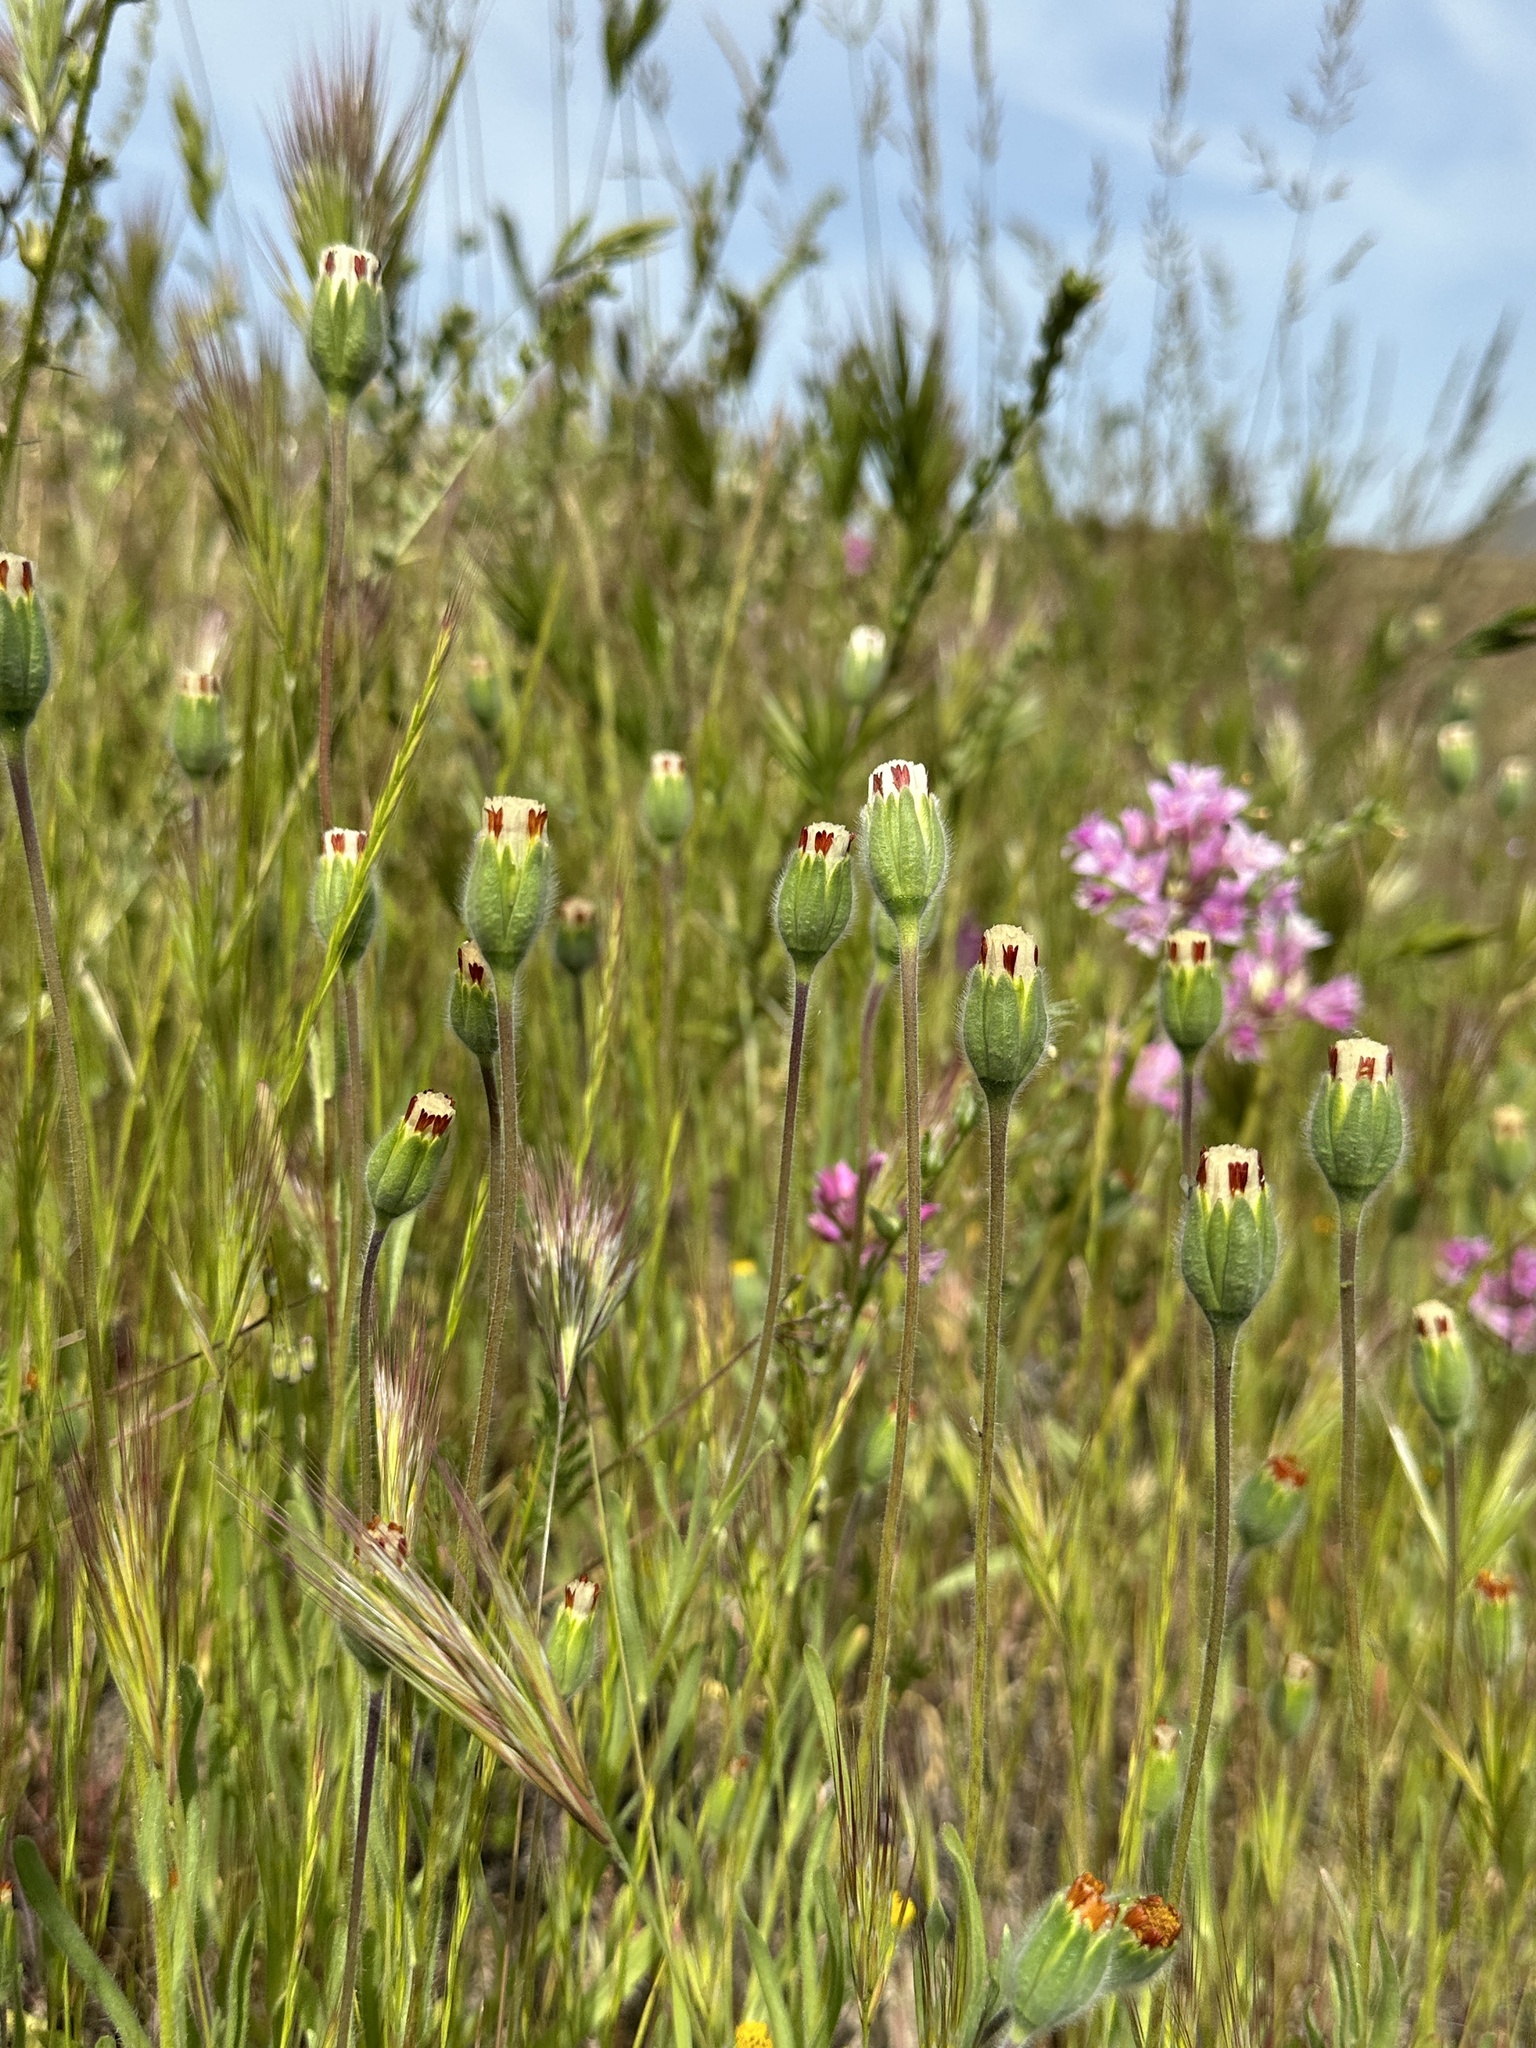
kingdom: Plantae
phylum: Tracheophyta
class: Magnoliopsida
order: Asterales
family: Asteraceae
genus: Achyrachaena
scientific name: Achyrachaena mollis
